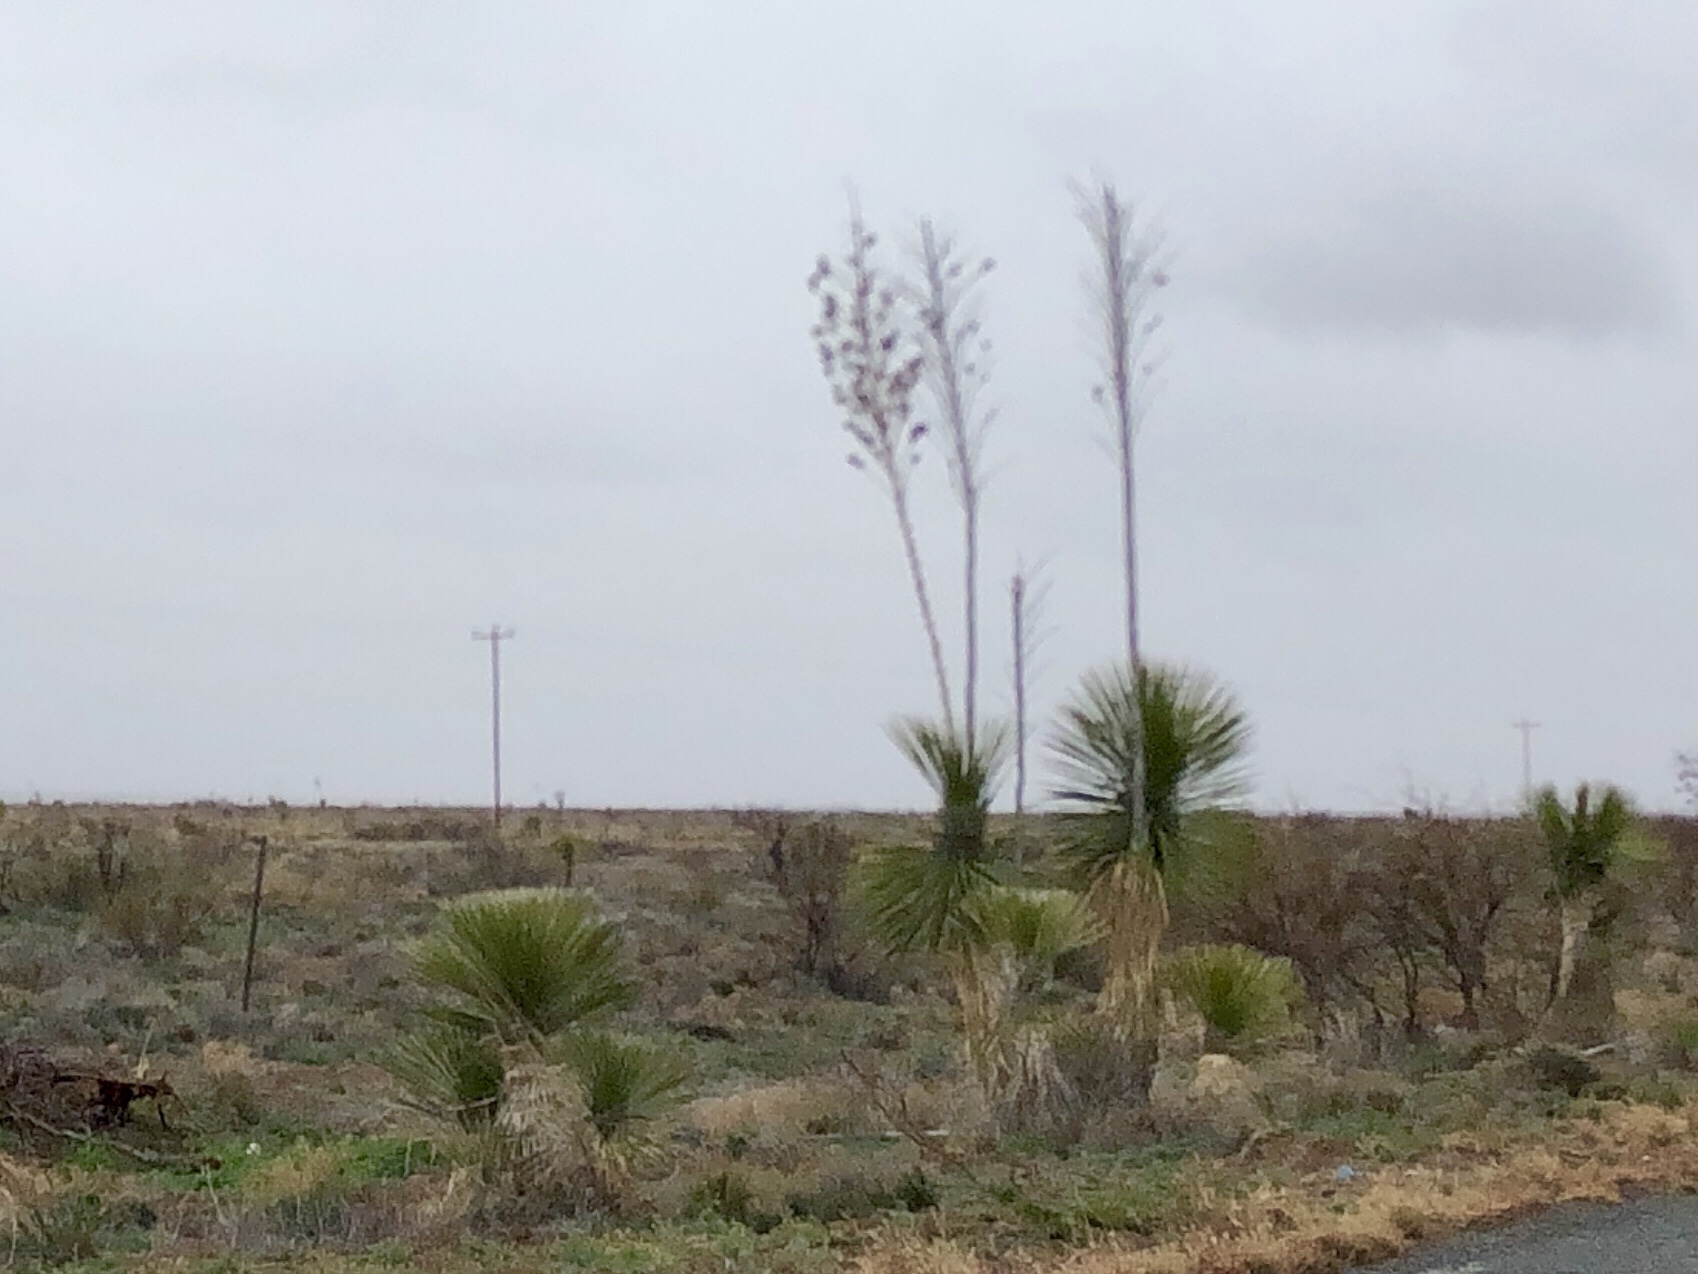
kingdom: Plantae
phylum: Tracheophyta
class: Liliopsida
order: Asparagales
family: Asparagaceae
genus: Yucca
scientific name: Yucca elata
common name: Palmella
